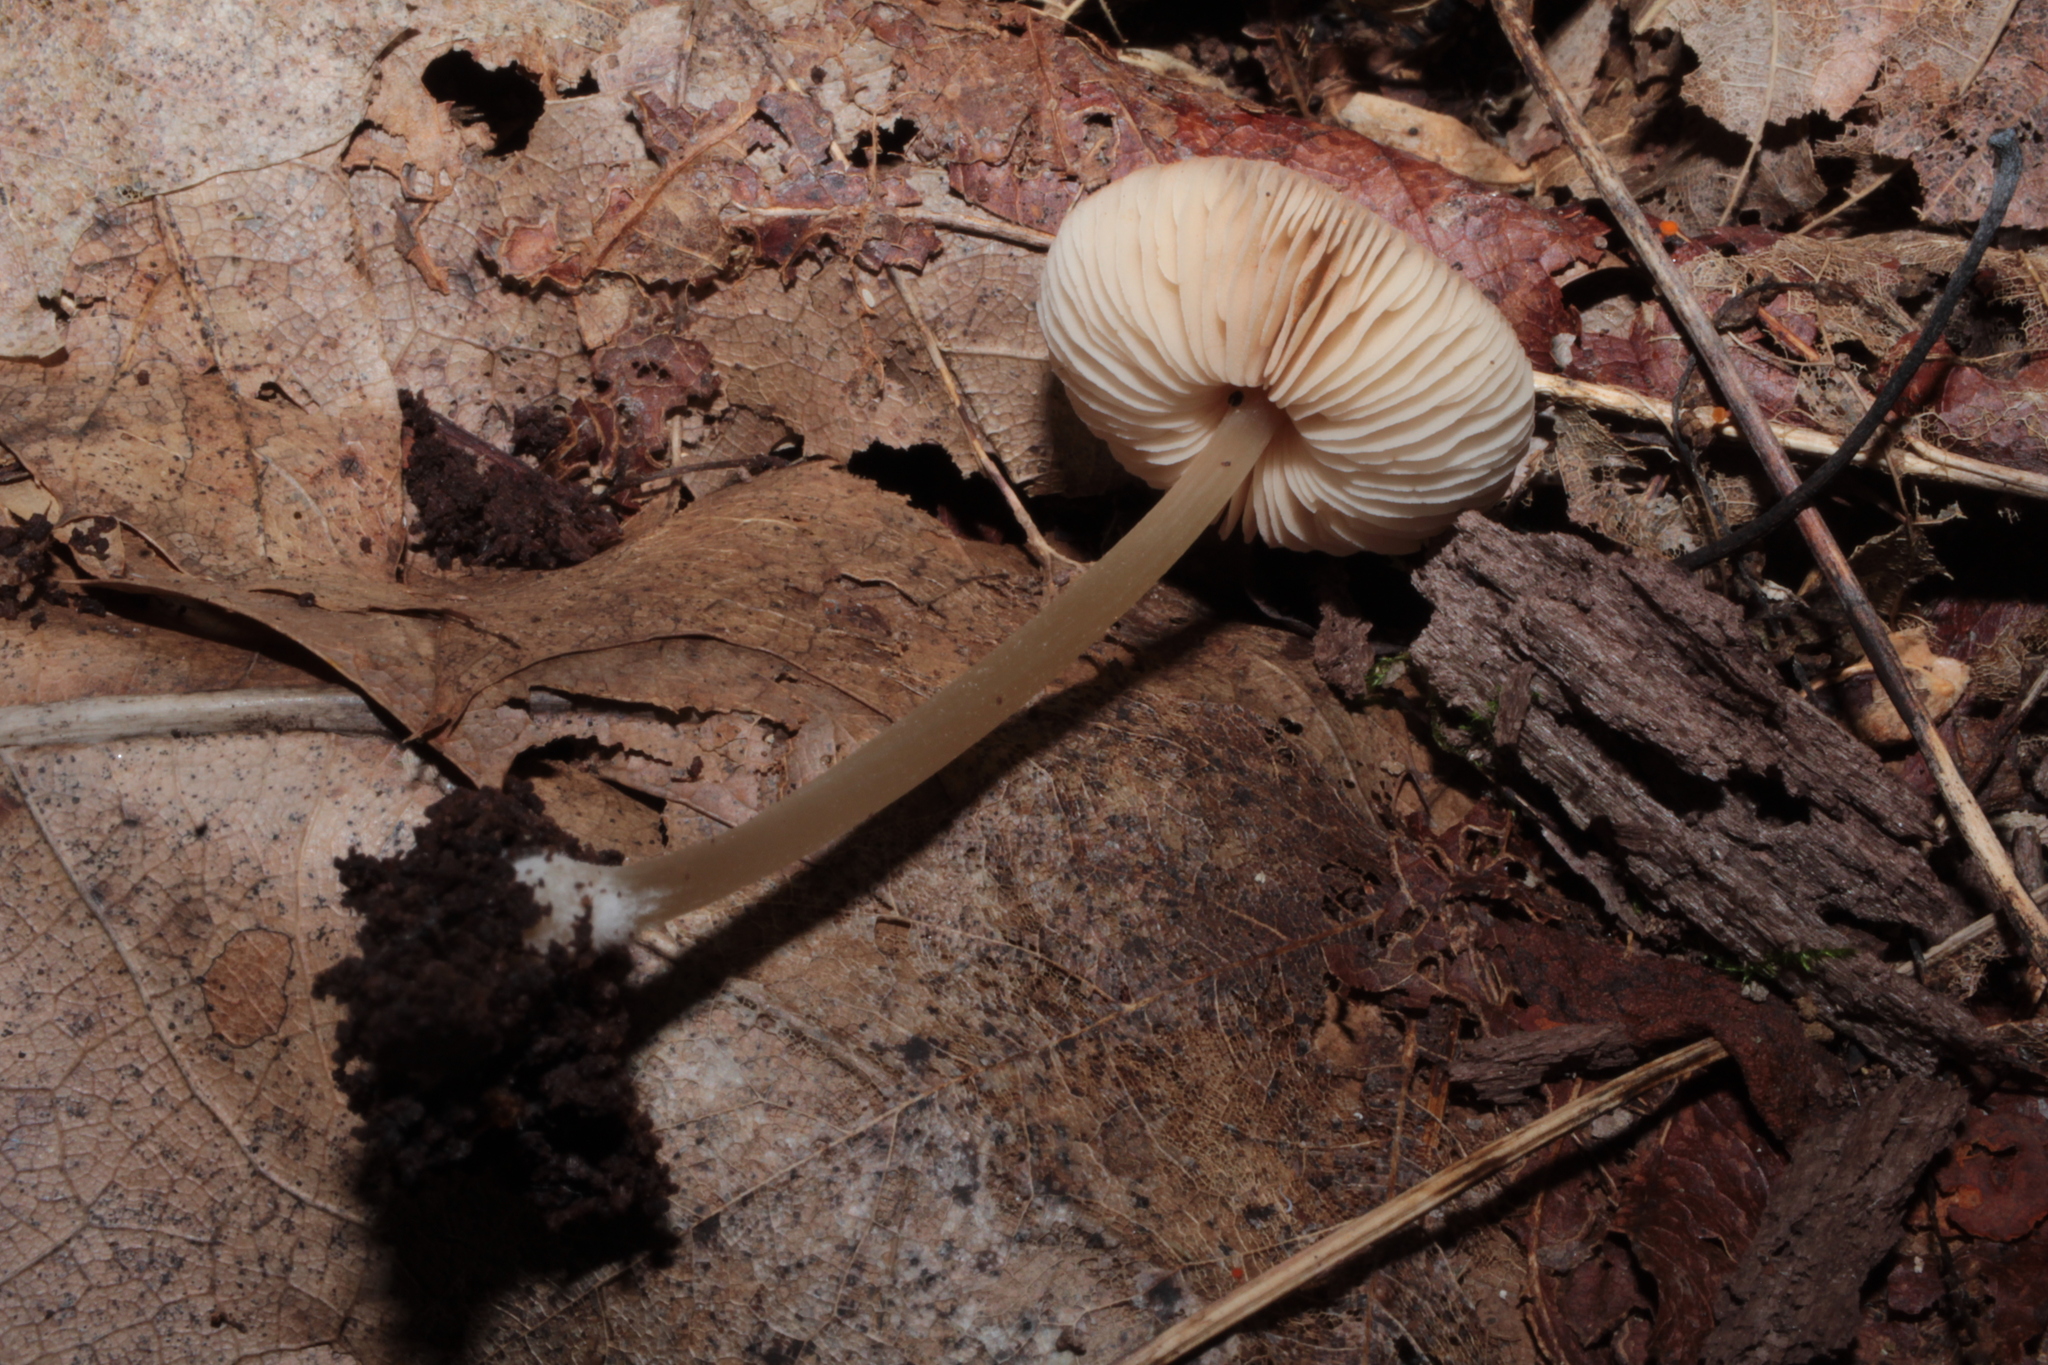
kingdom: Fungi
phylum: Basidiomycota
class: Agaricomycetes
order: Agaricales
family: Pluteaceae
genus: Pluteus
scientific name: Pluteus pallidus
